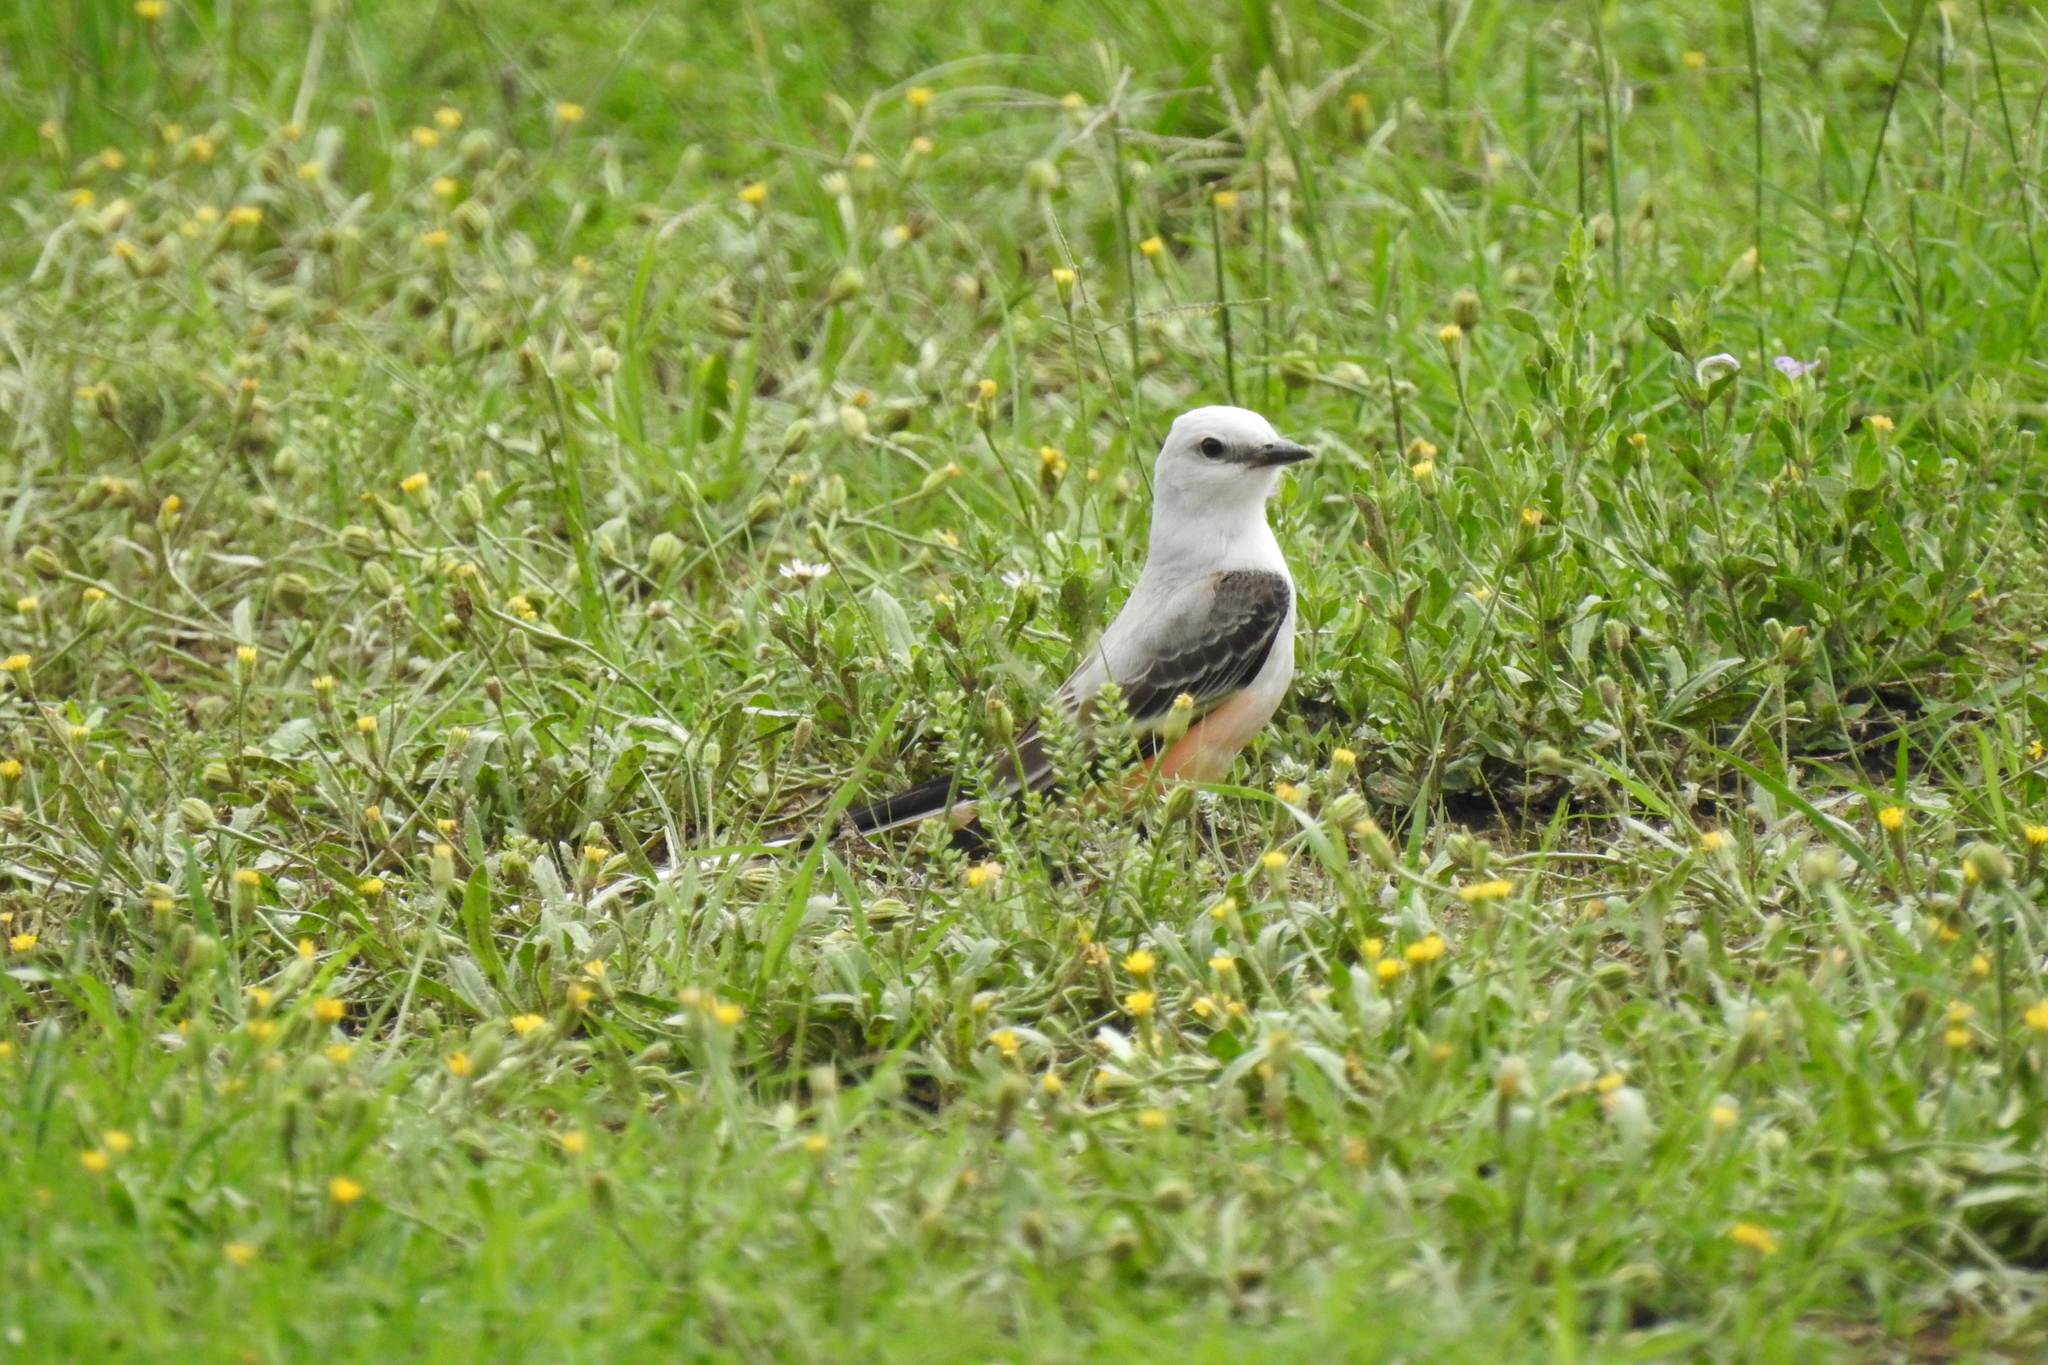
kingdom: Animalia
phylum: Chordata
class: Aves
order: Passeriformes
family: Tyrannidae
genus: Tyrannus
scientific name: Tyrannus forficatus
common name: Scissor-tailed flycatcher
